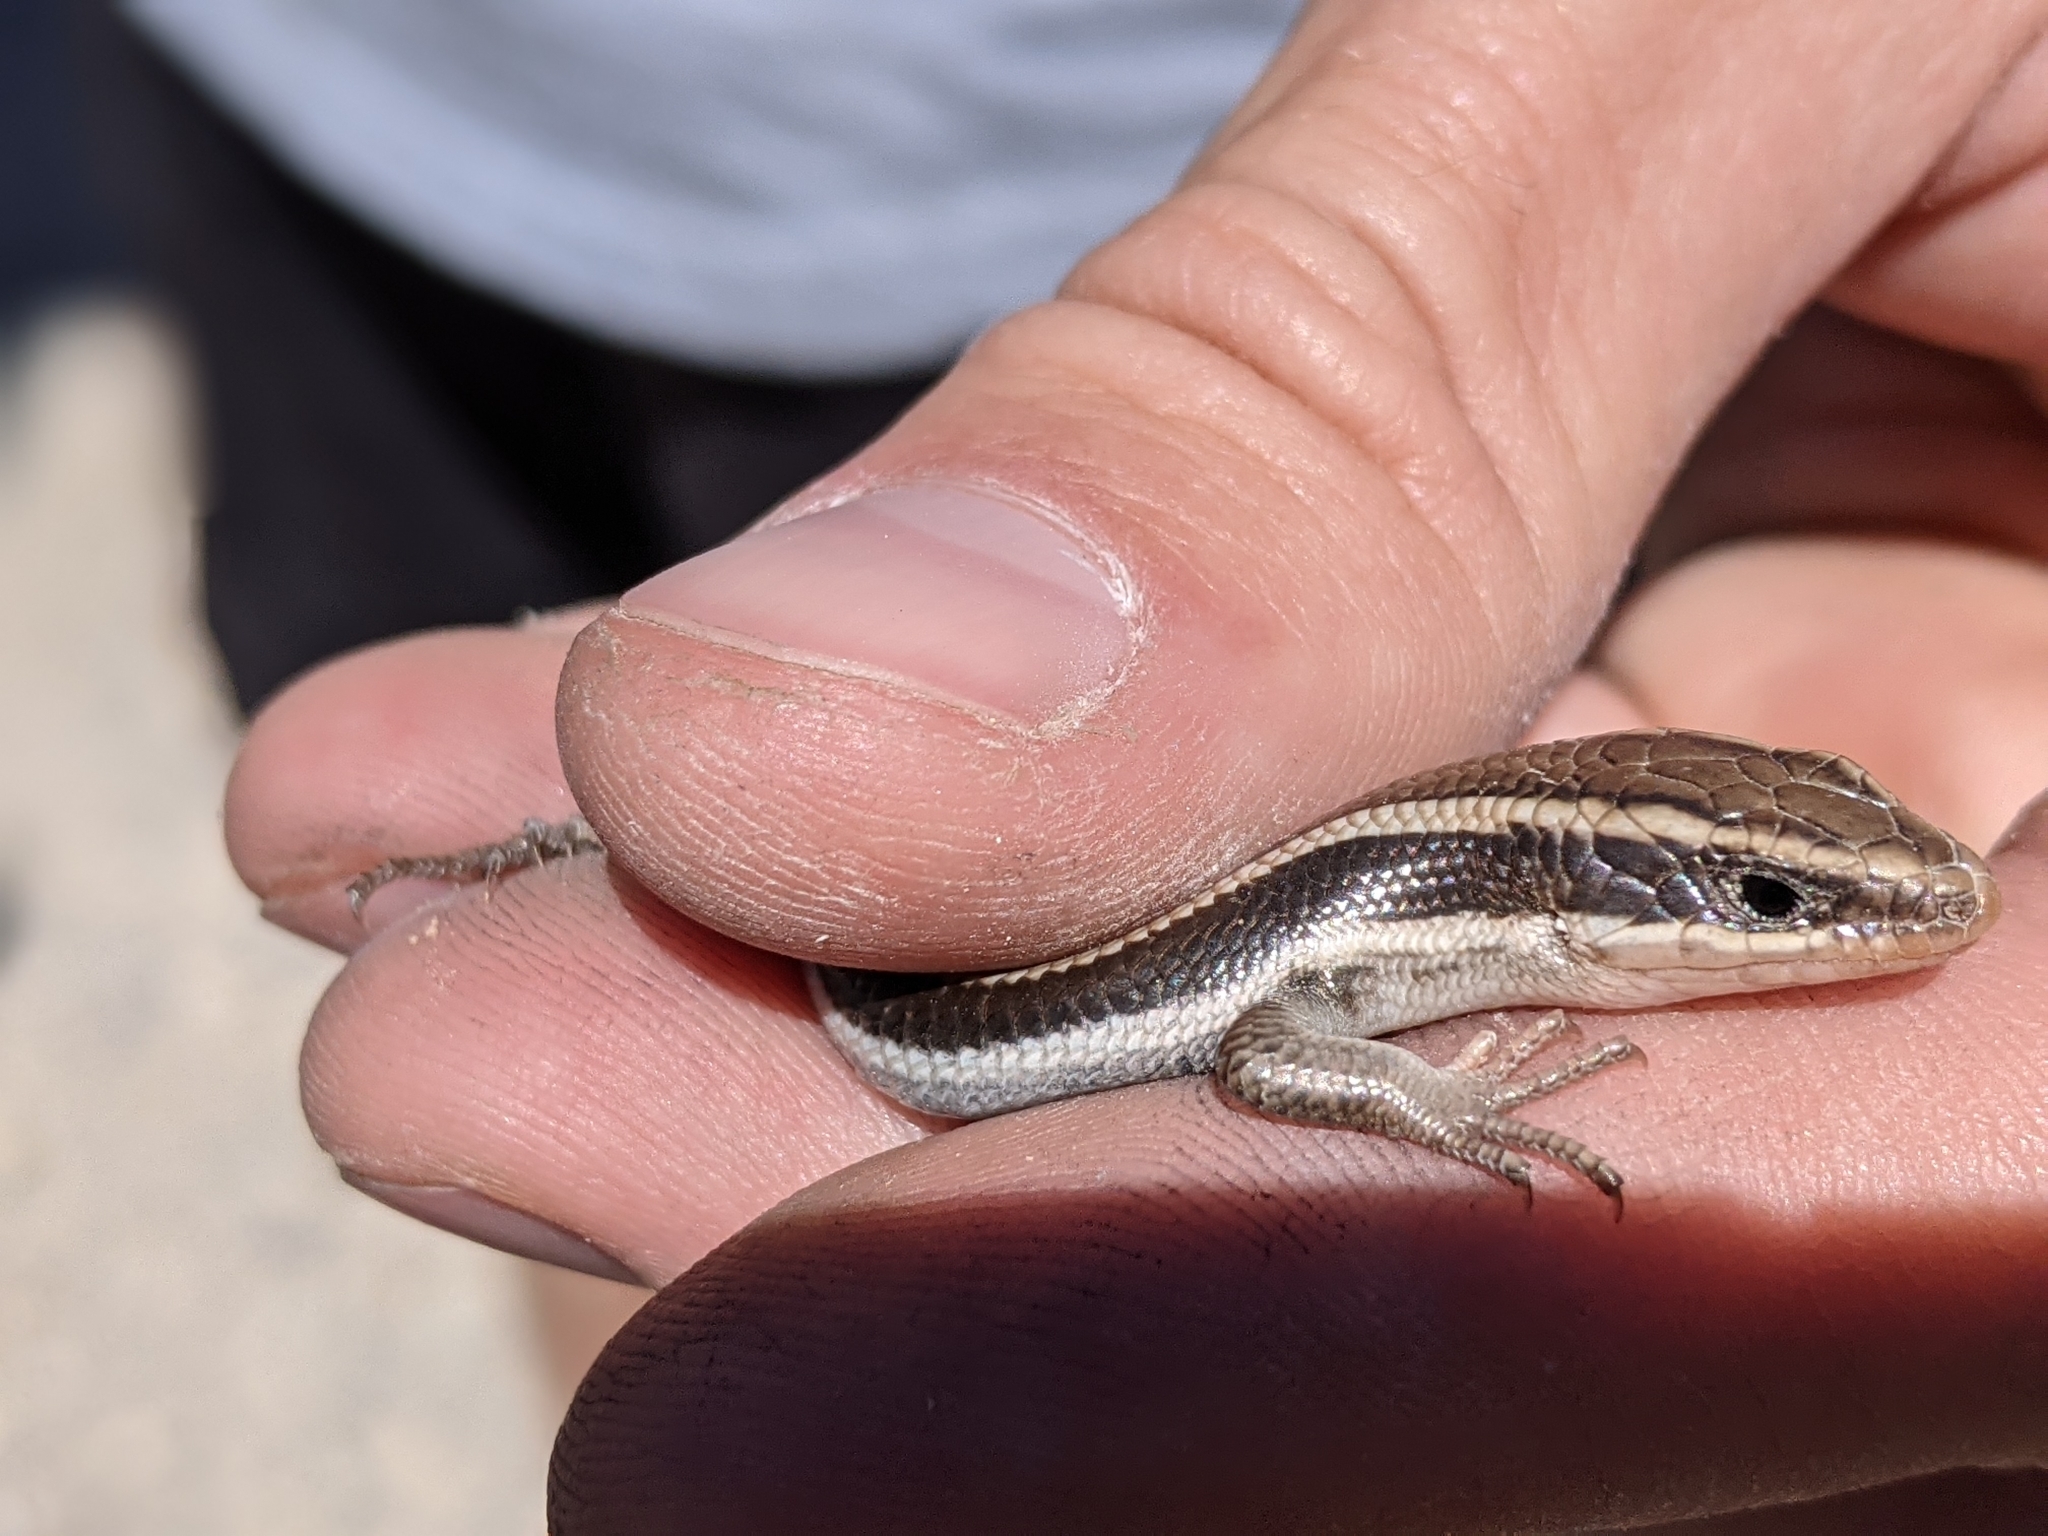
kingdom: Animalia
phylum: Chordata
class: Squamata
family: Scincidae
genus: Plestiodon
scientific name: Plestiodon skiltonianus
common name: Coronado island skink [interparietalis]
